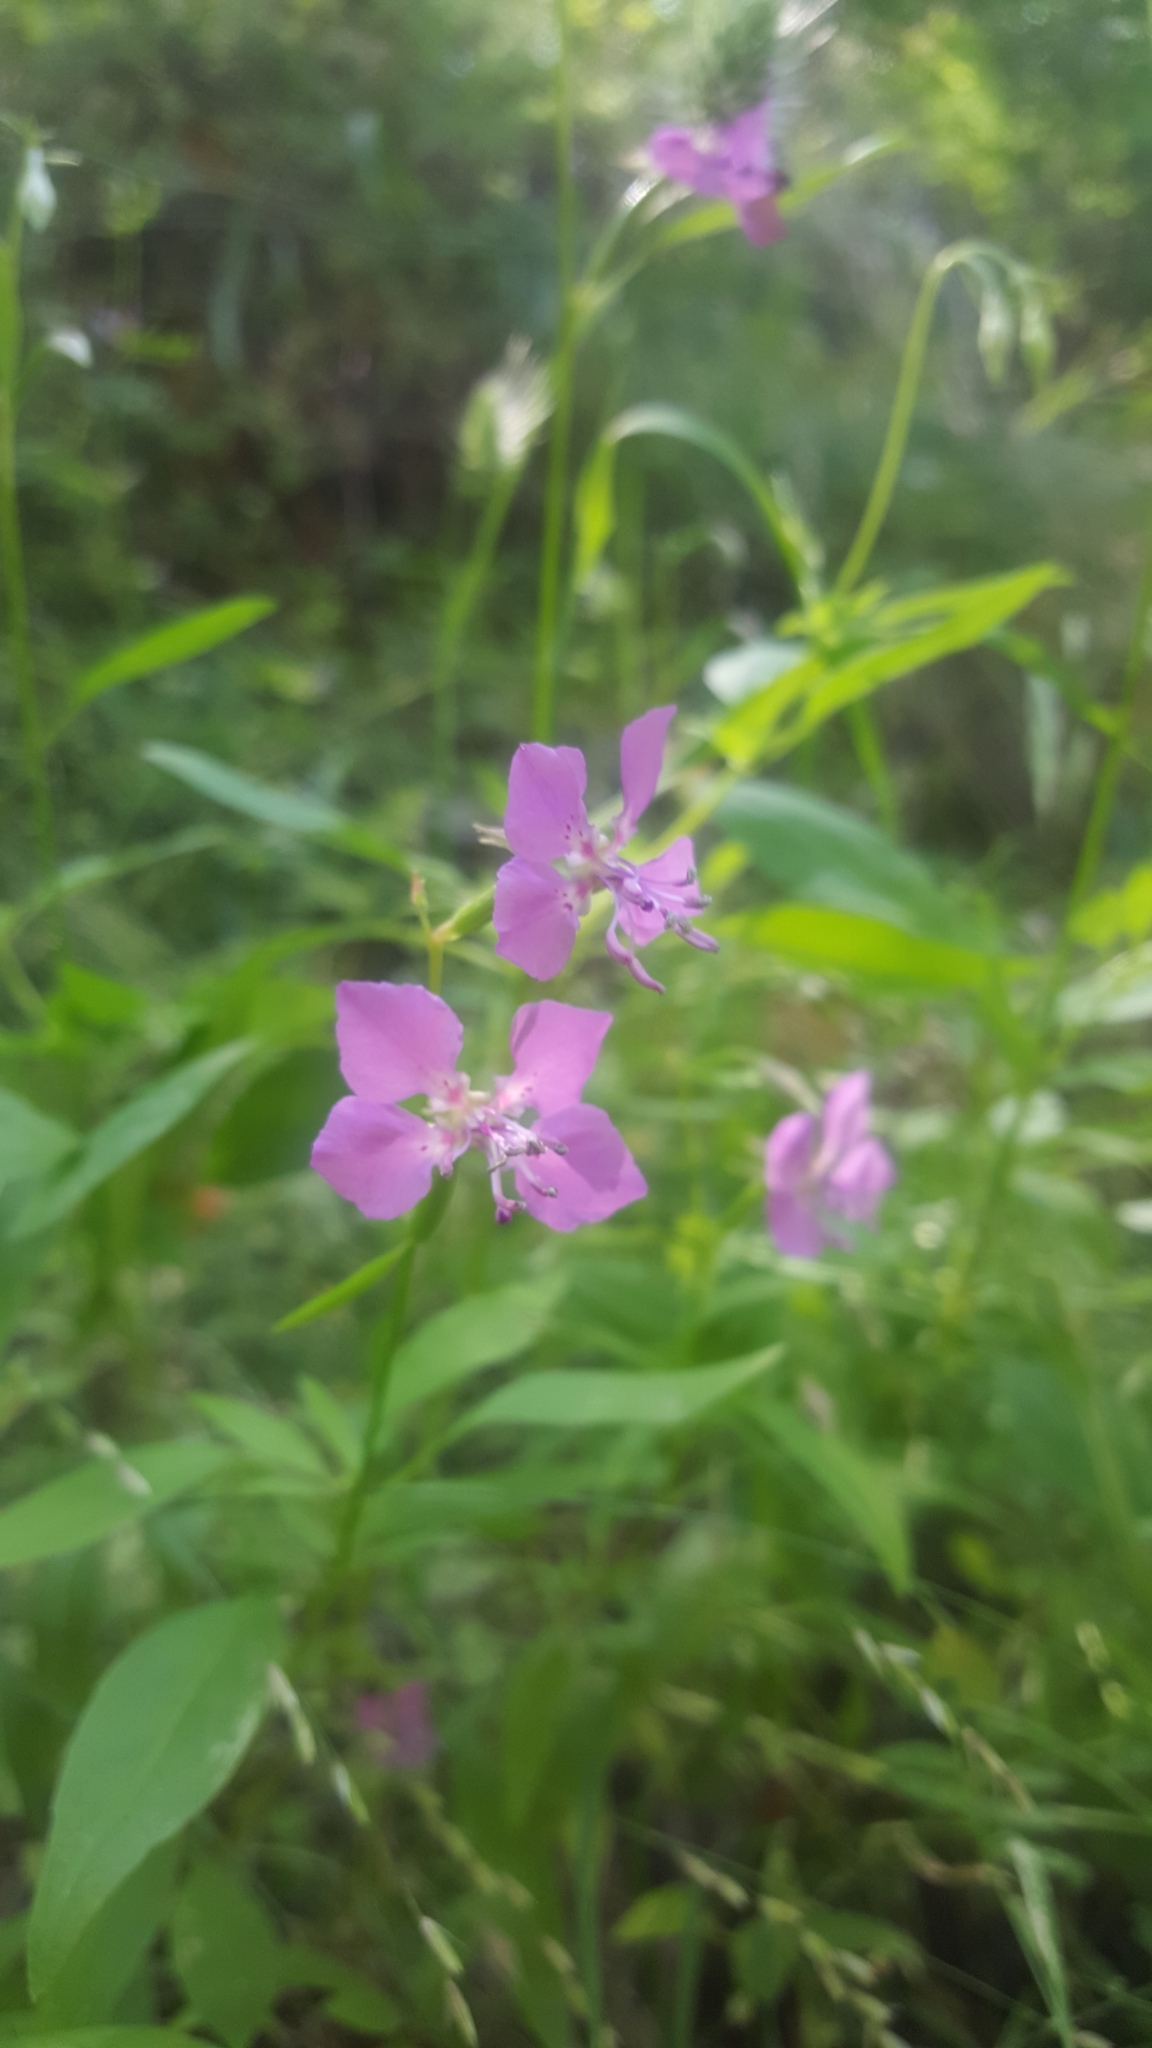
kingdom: Plantae
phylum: Tracheophyta
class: Magnoliopsida
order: Myrtales
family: Onagraceae
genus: Clarkia
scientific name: Clarkia rhomboidea
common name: Broadleaf clarkia
